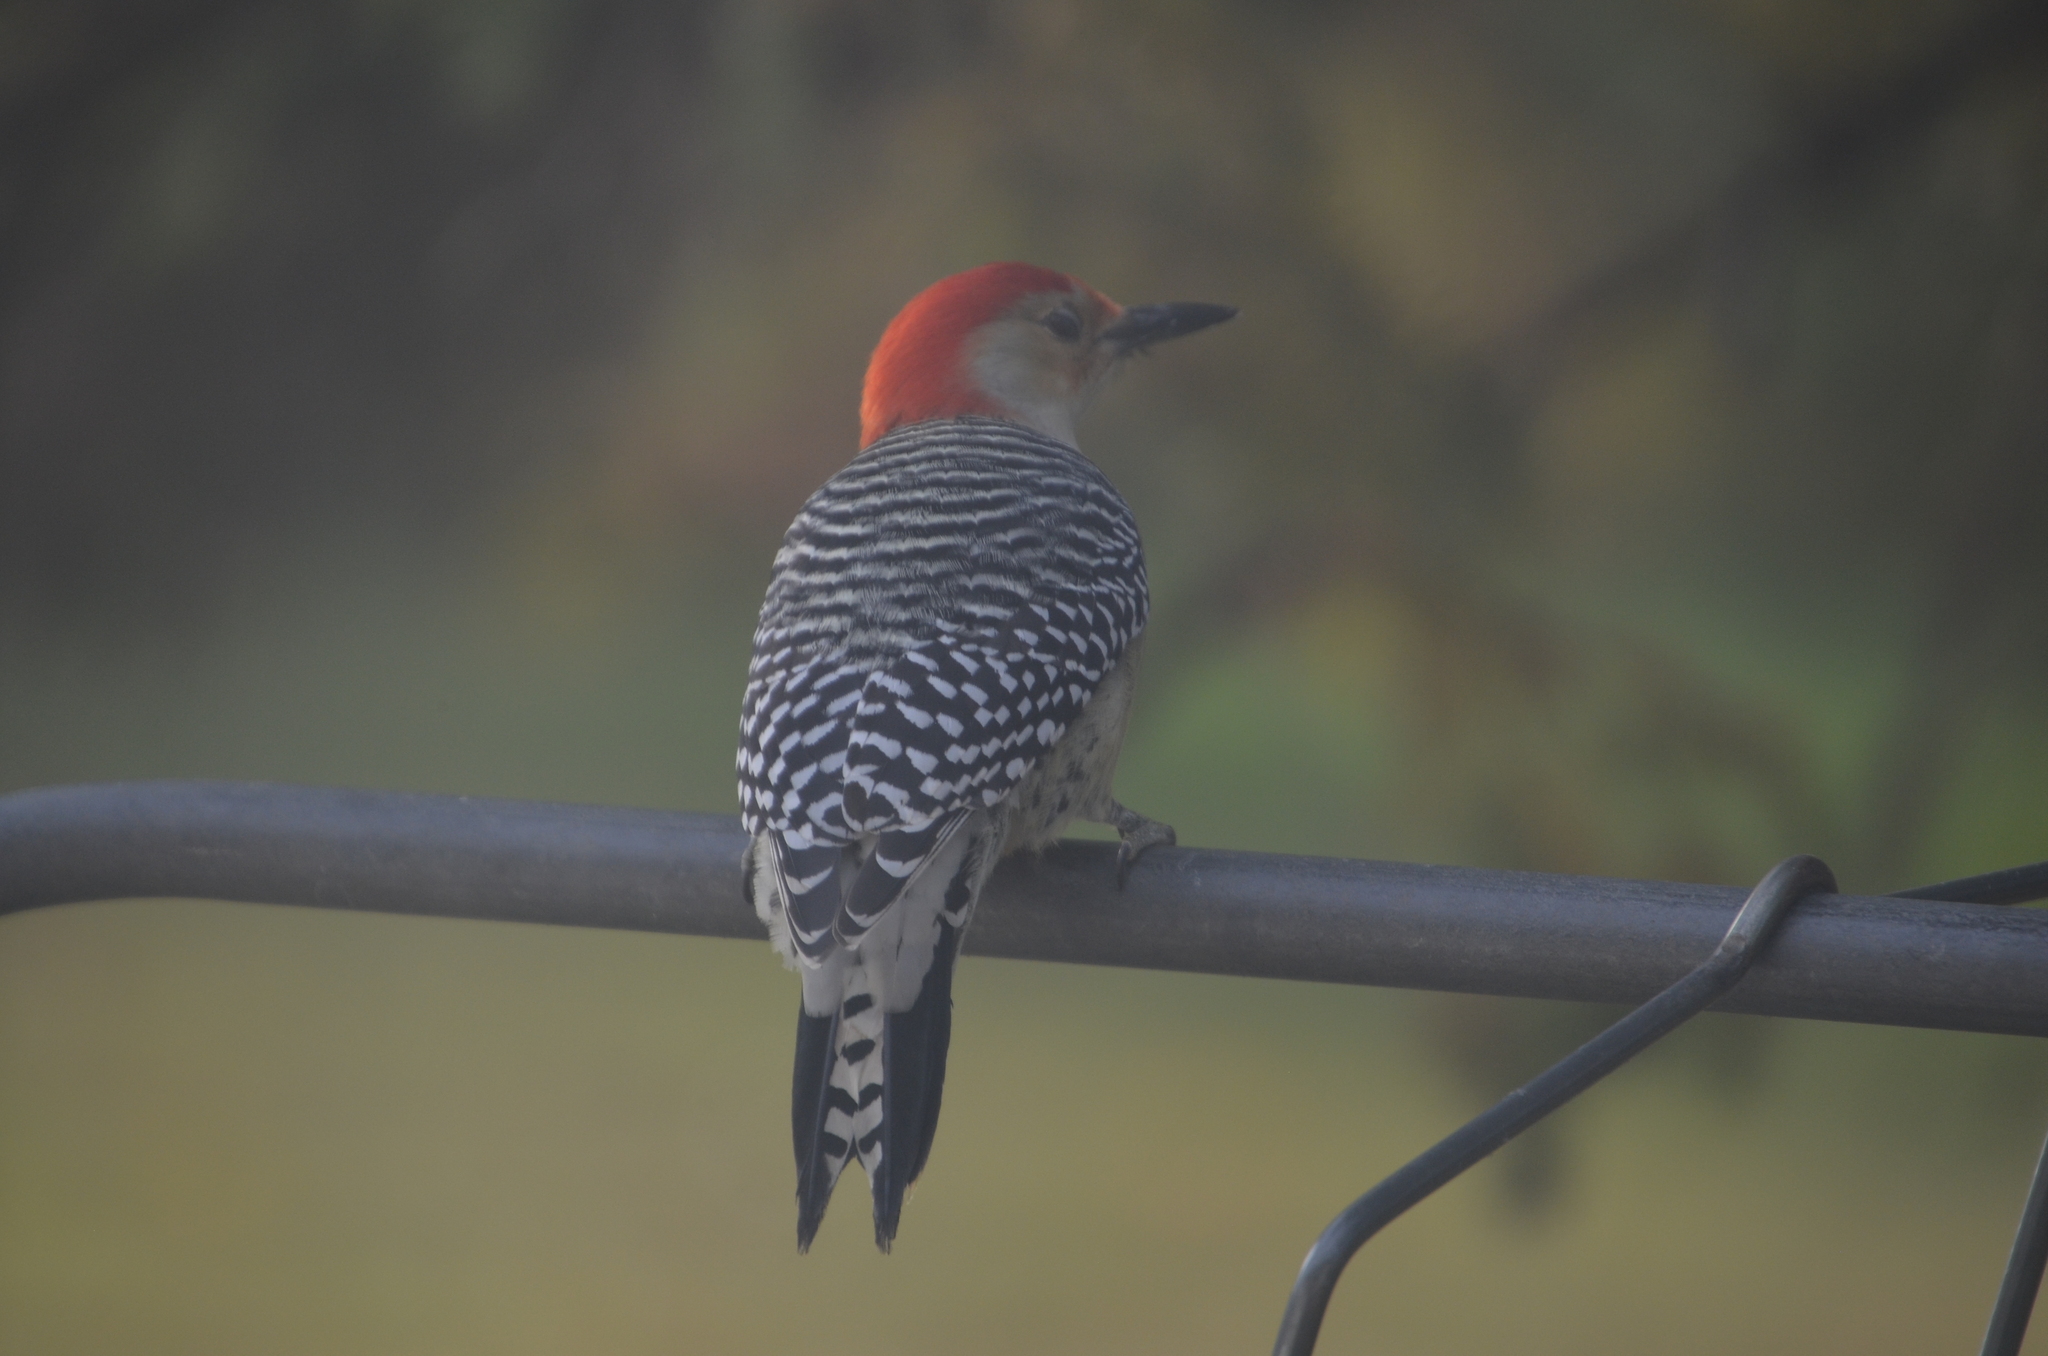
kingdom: Animalia
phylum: Chordata
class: Aves
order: Piciformes
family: Picidae
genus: Melanerpes
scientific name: Melanerpes carolinus
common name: Red-bellied woodpecker
